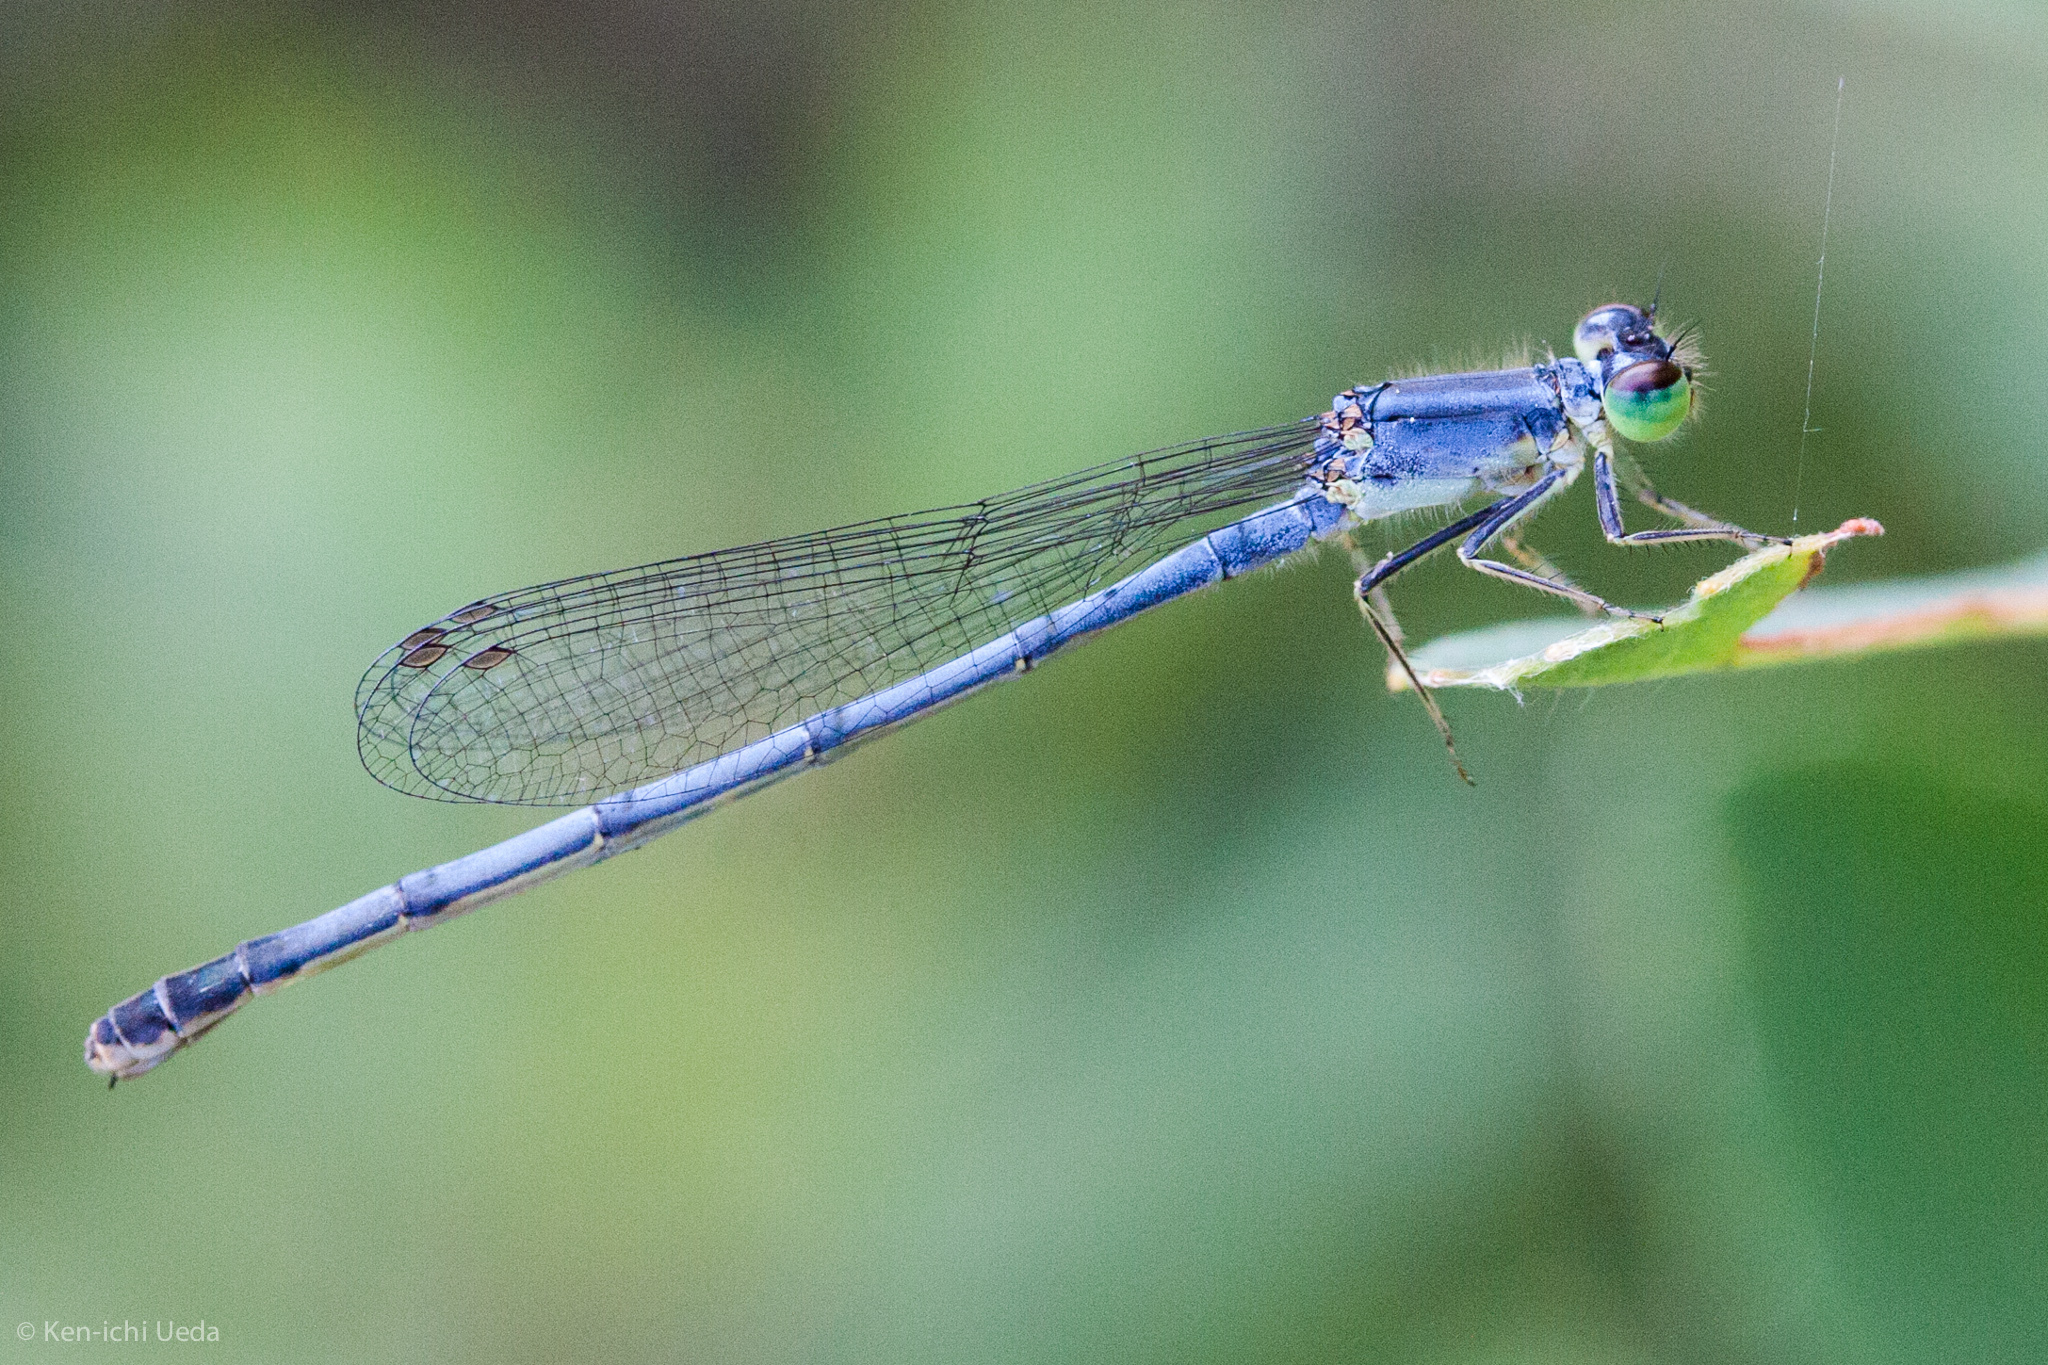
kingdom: Animalia
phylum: Arthropoda
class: Insecta
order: Odonata
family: Coenagrionidae
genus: Ischnura
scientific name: Ischnura verticalis
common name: Eastern forktail
